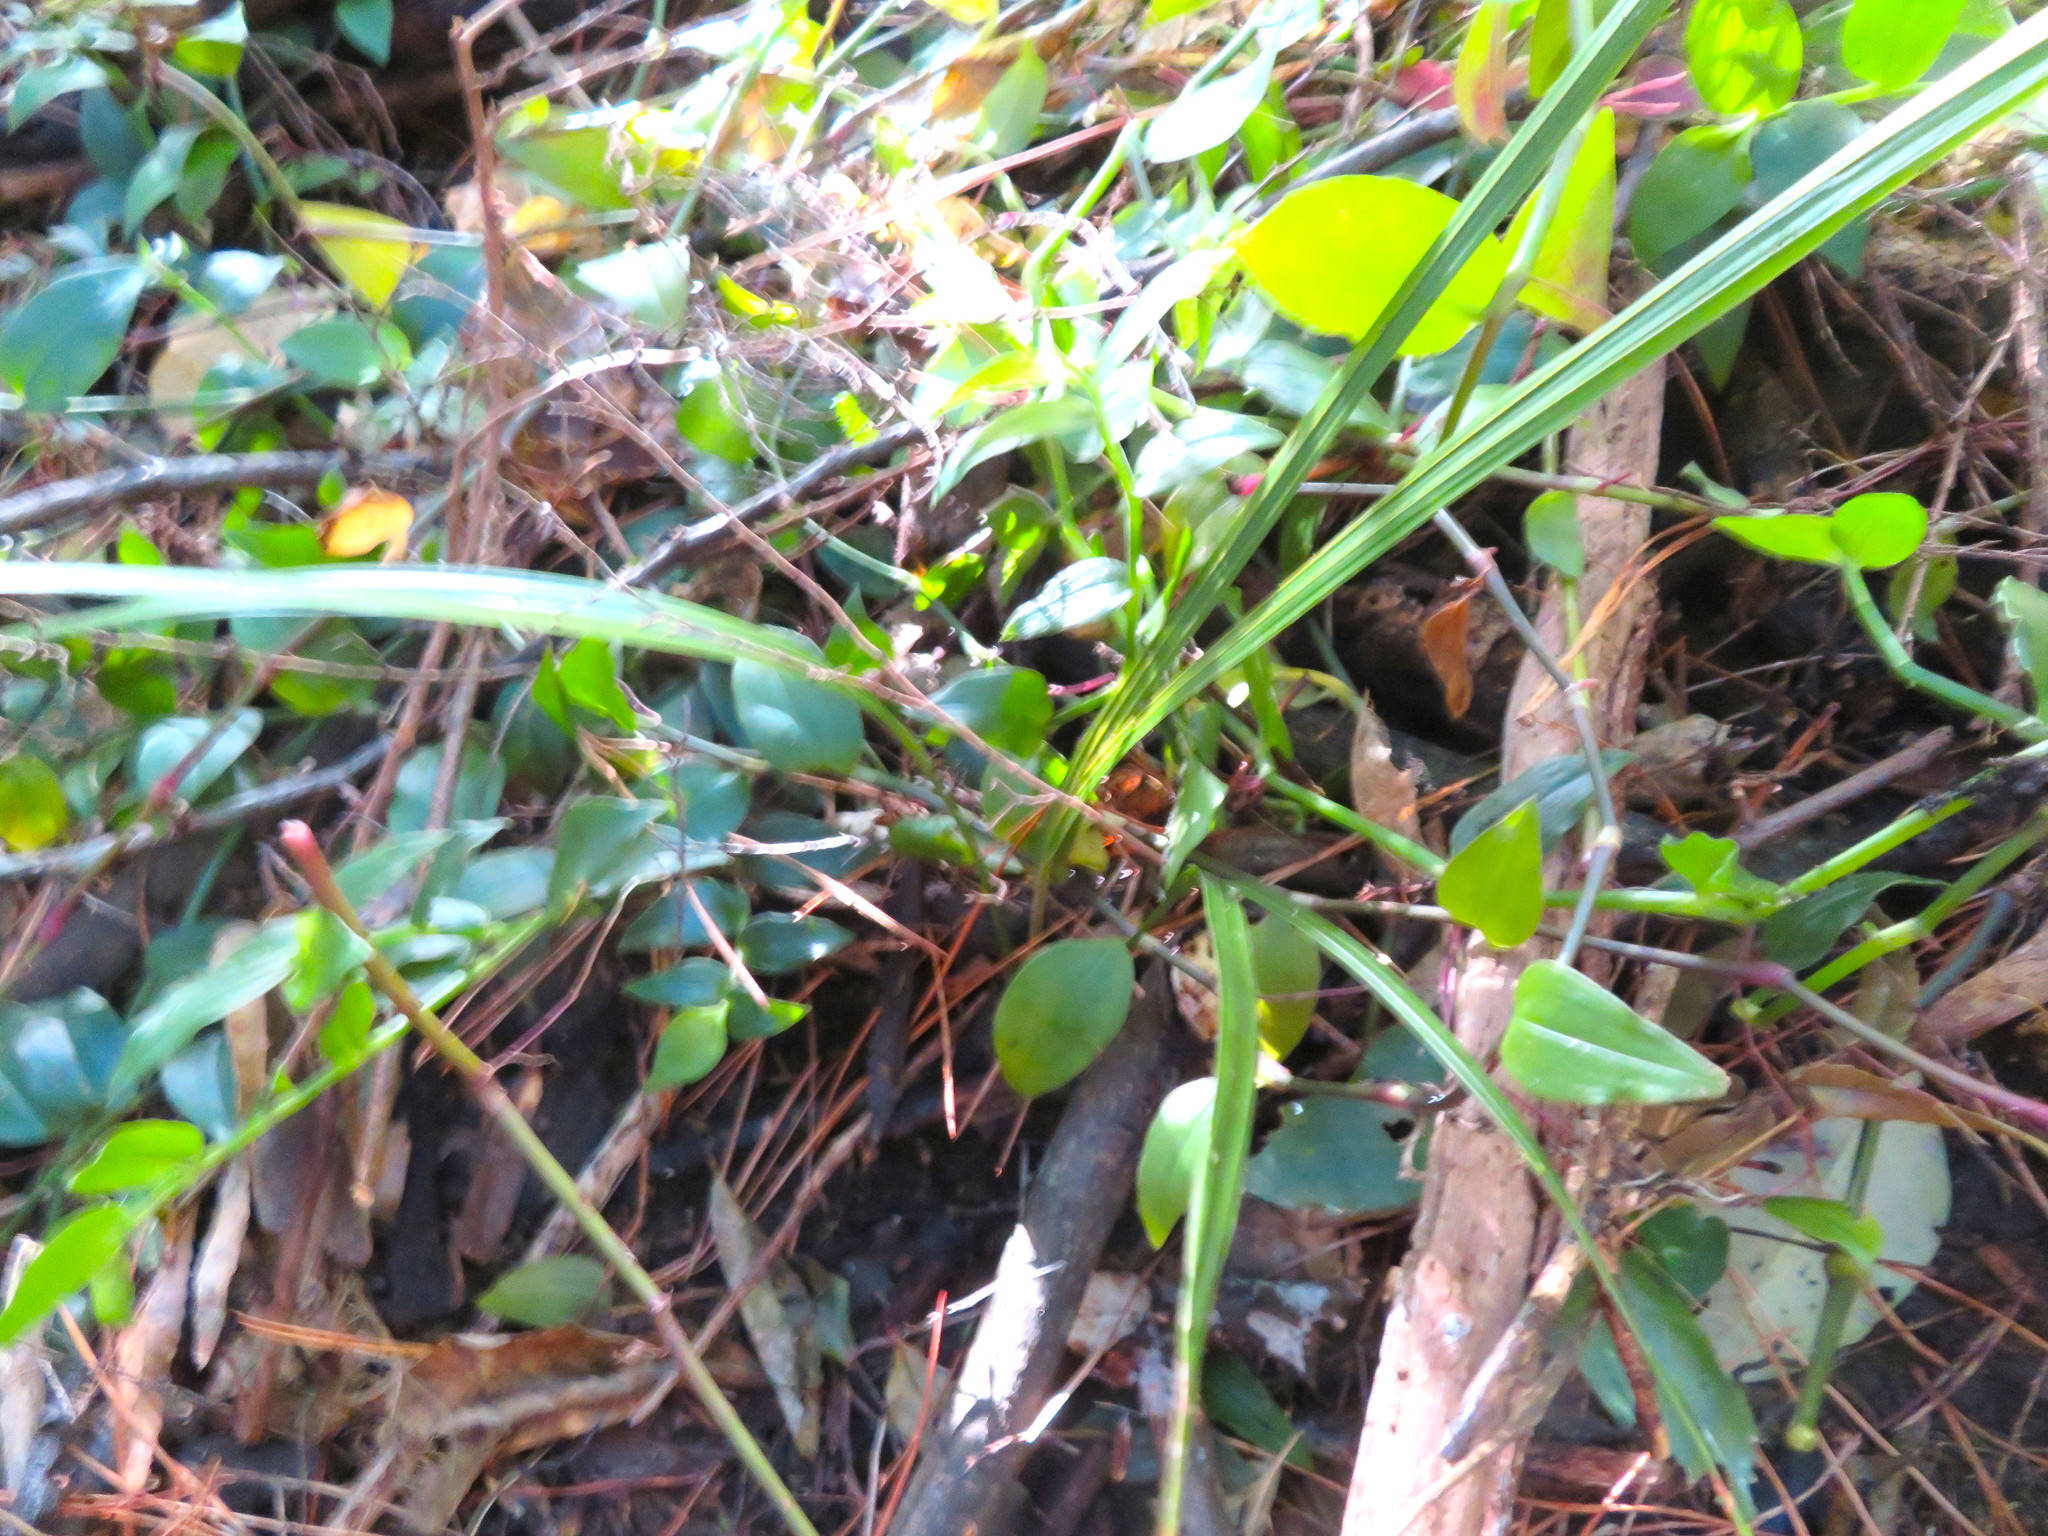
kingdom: Plantae
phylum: Tracheophyta
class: Liliopsida
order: Arecales
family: Arecaceae
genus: Rhopalostylis
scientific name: Rhopalostylis sapida
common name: Feather-duster palm
